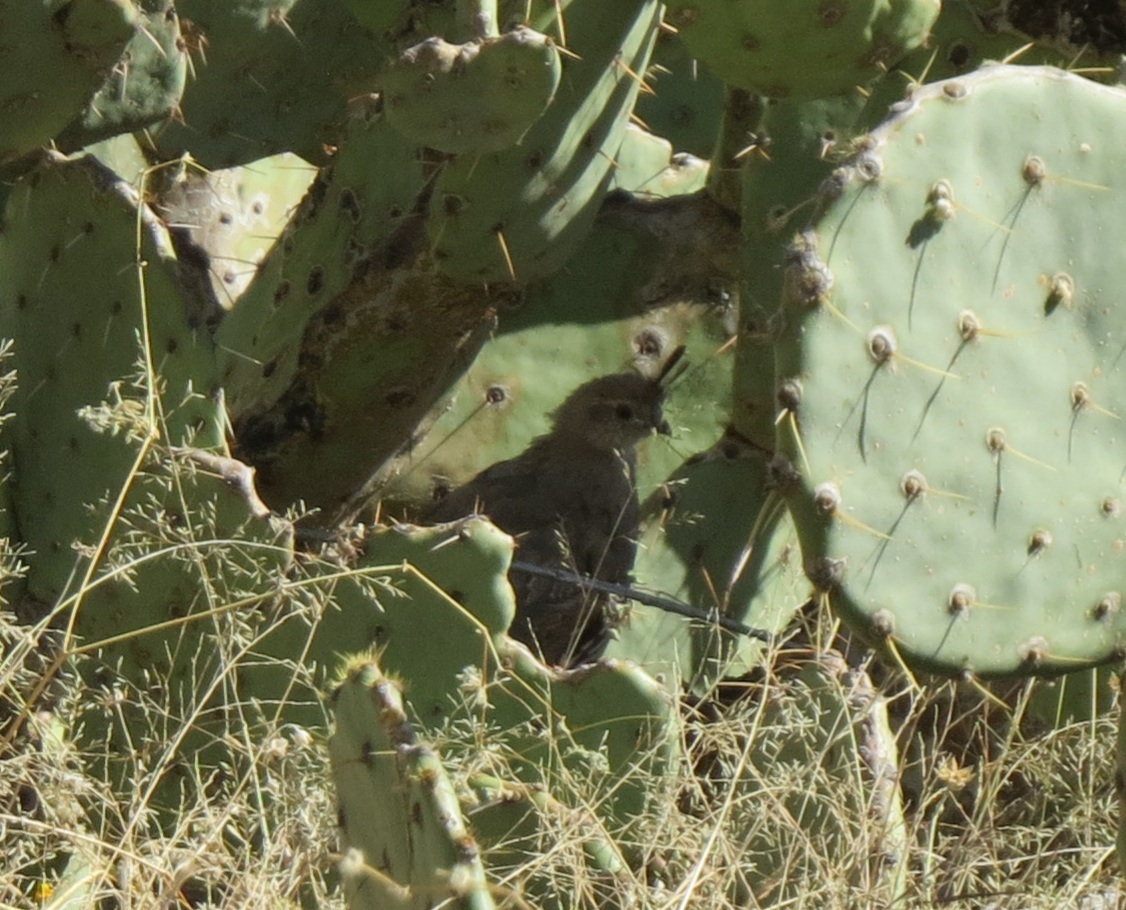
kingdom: Animalia
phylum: Chordata
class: Aves
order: Galliformes
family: Odontophoridae
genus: Callipepla
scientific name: Callipepla gambelii
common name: Gambel's quail
